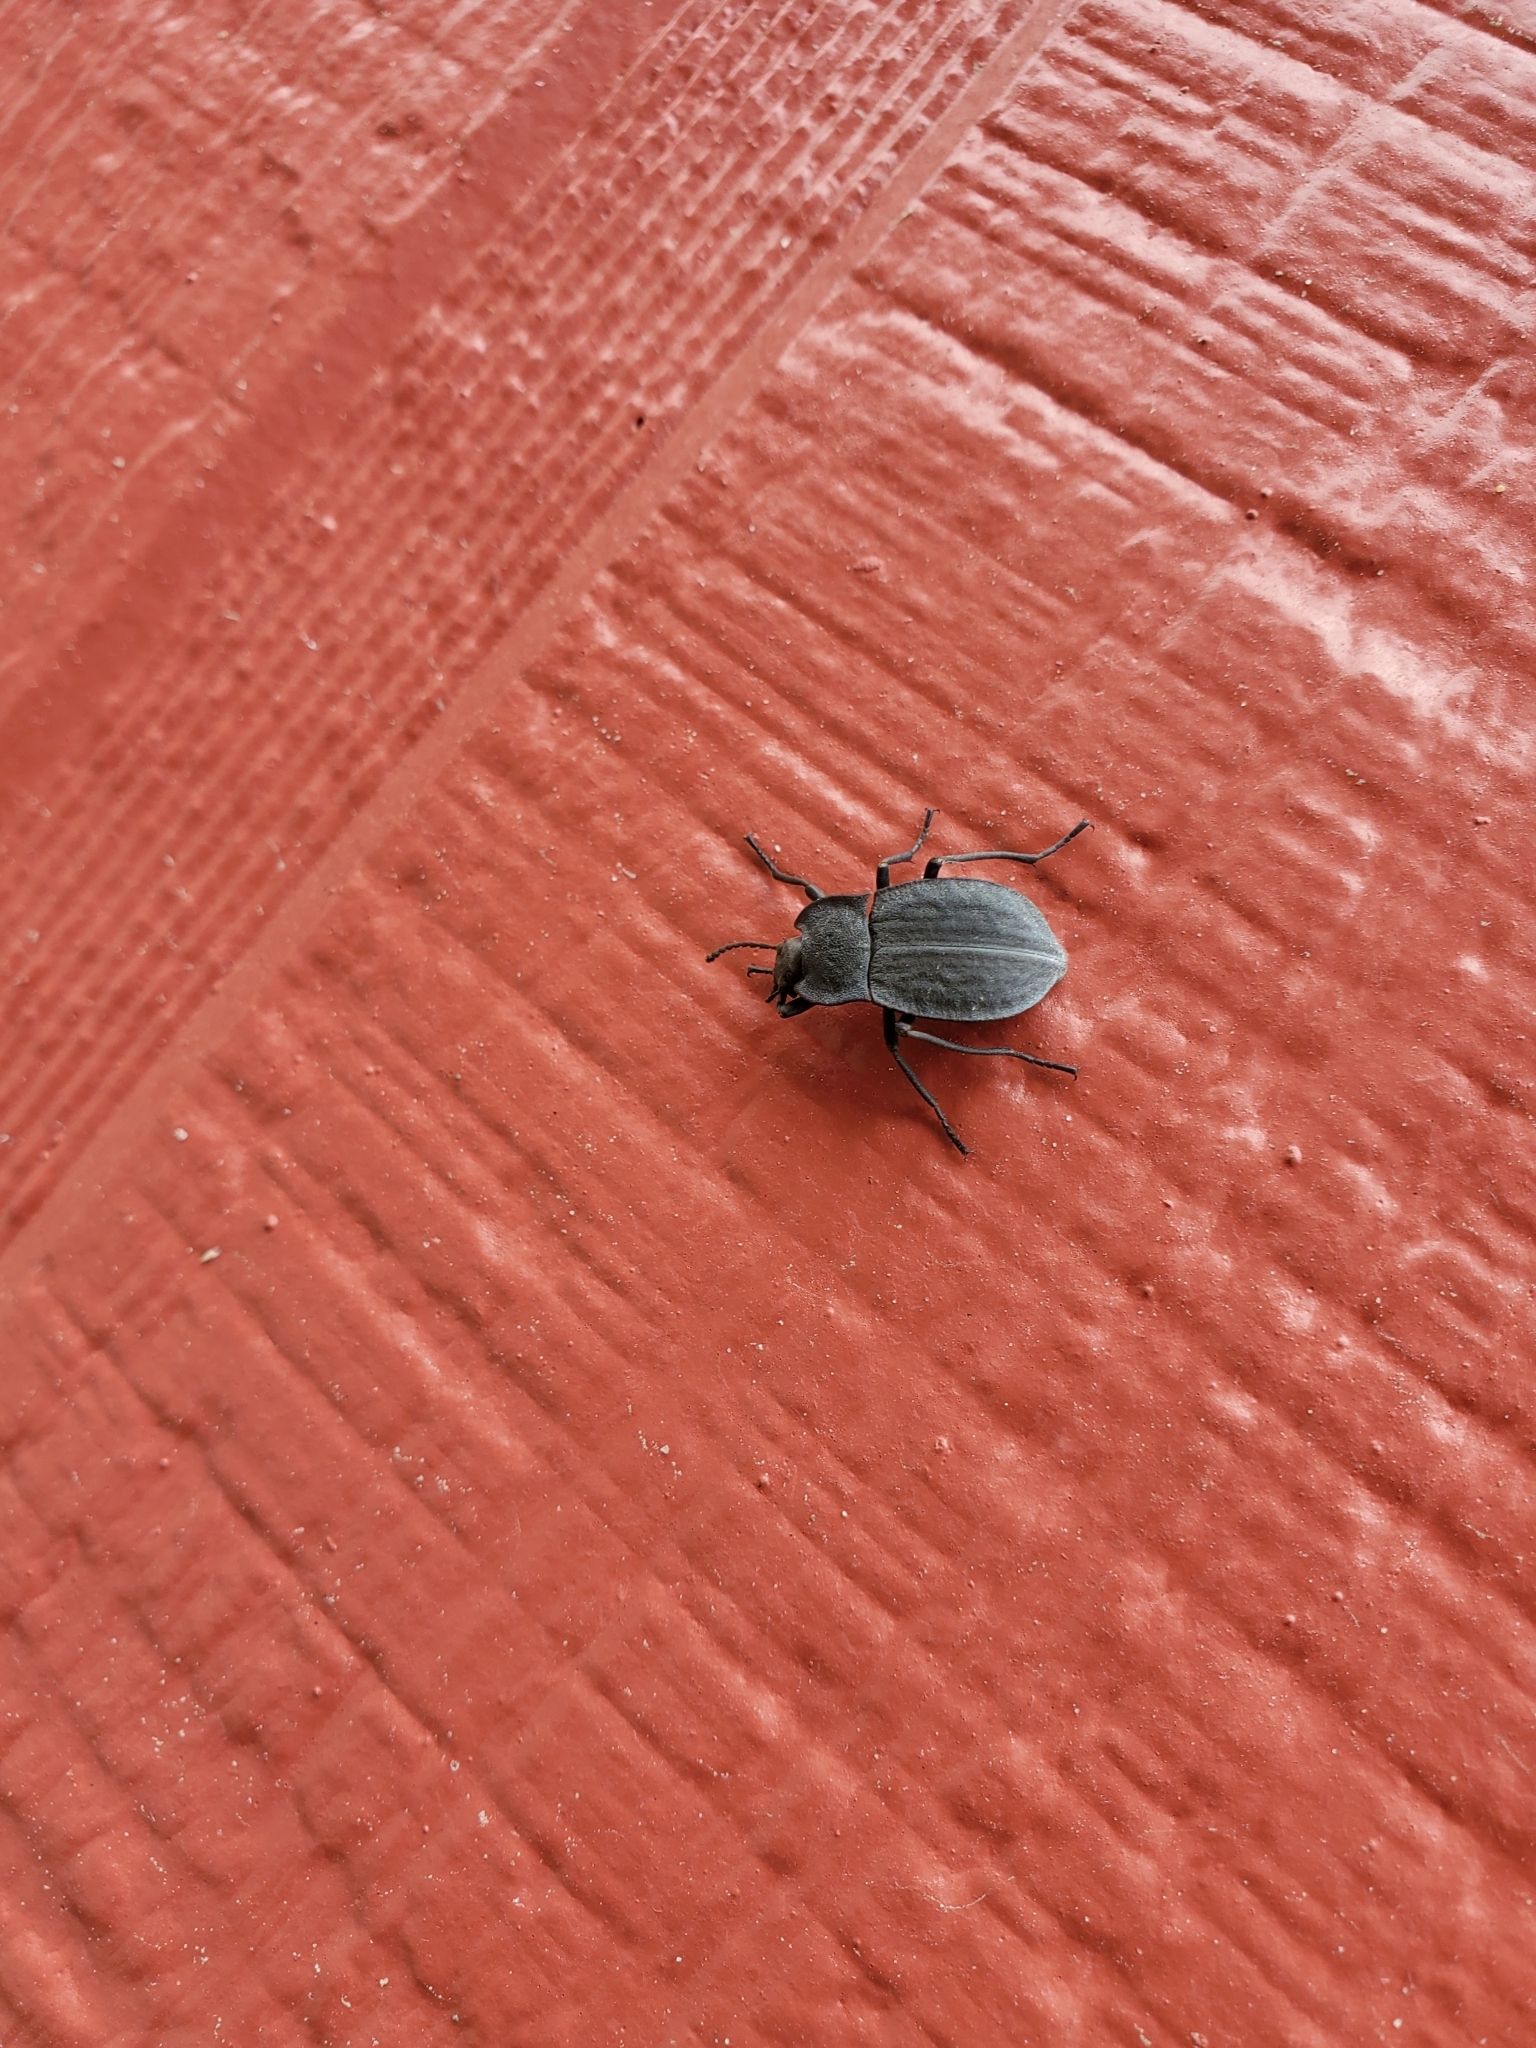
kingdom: Animalia
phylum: Arthropoda
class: Insecta
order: Coleoptera
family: Tenebrionidae
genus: Stenomorpha
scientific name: Stenomorpha opaca
